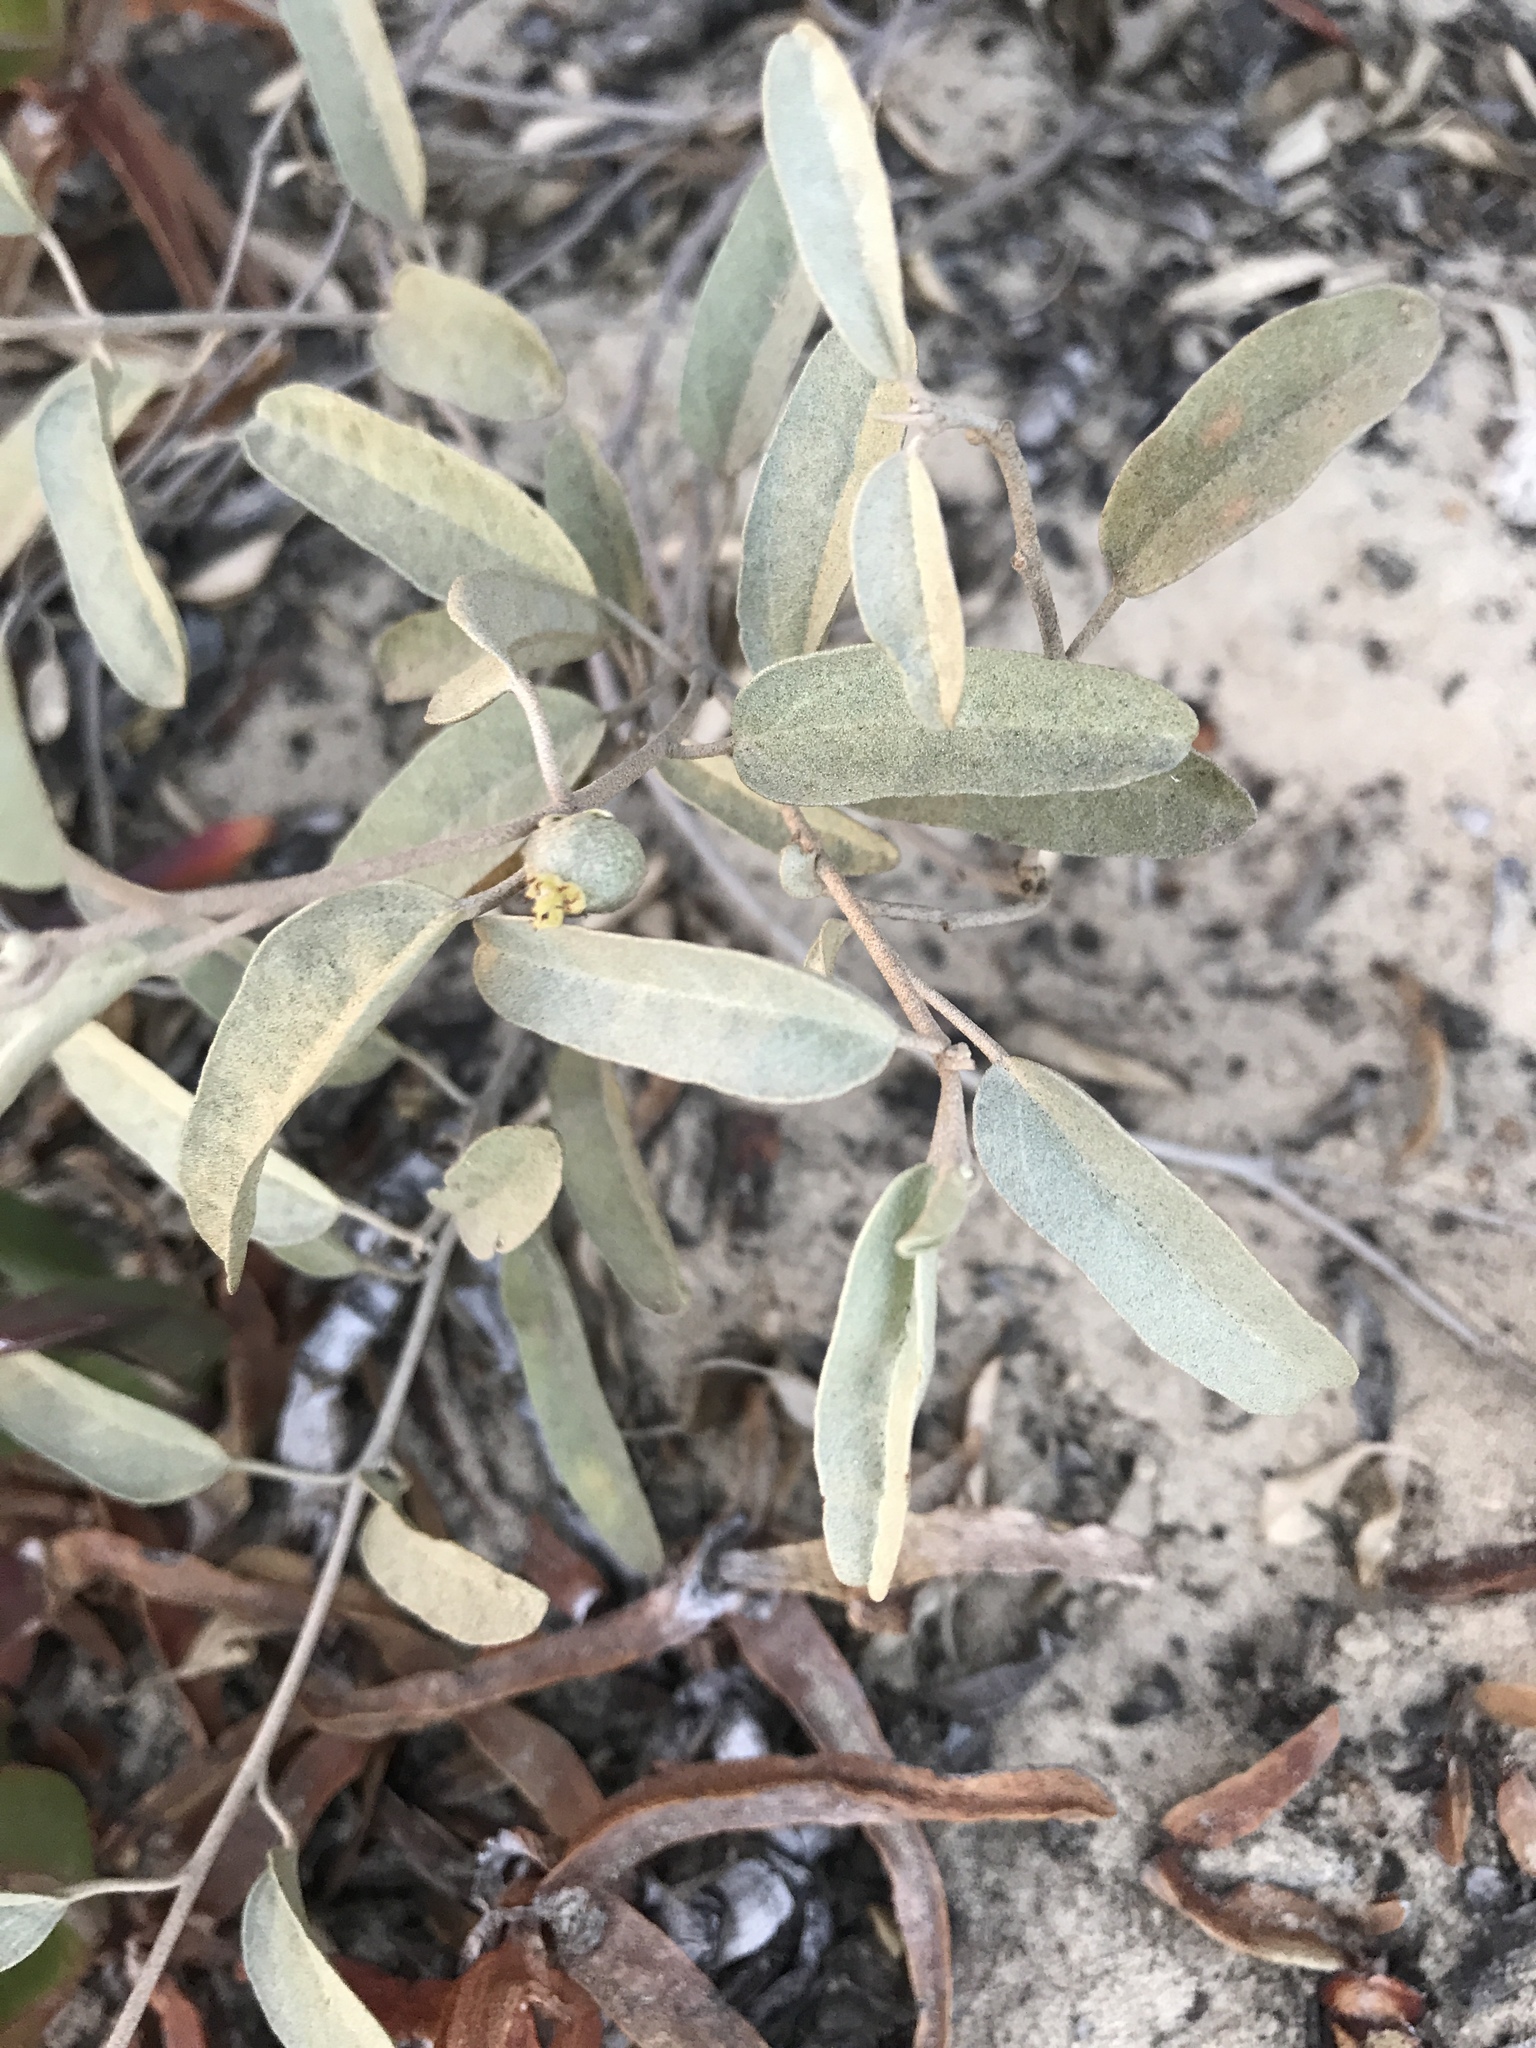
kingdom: Plantae
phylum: Tracheophyta
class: Magnoliopsida
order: Malpighiales
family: Euphorbiaceae
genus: Croton
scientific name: Croton californicus
